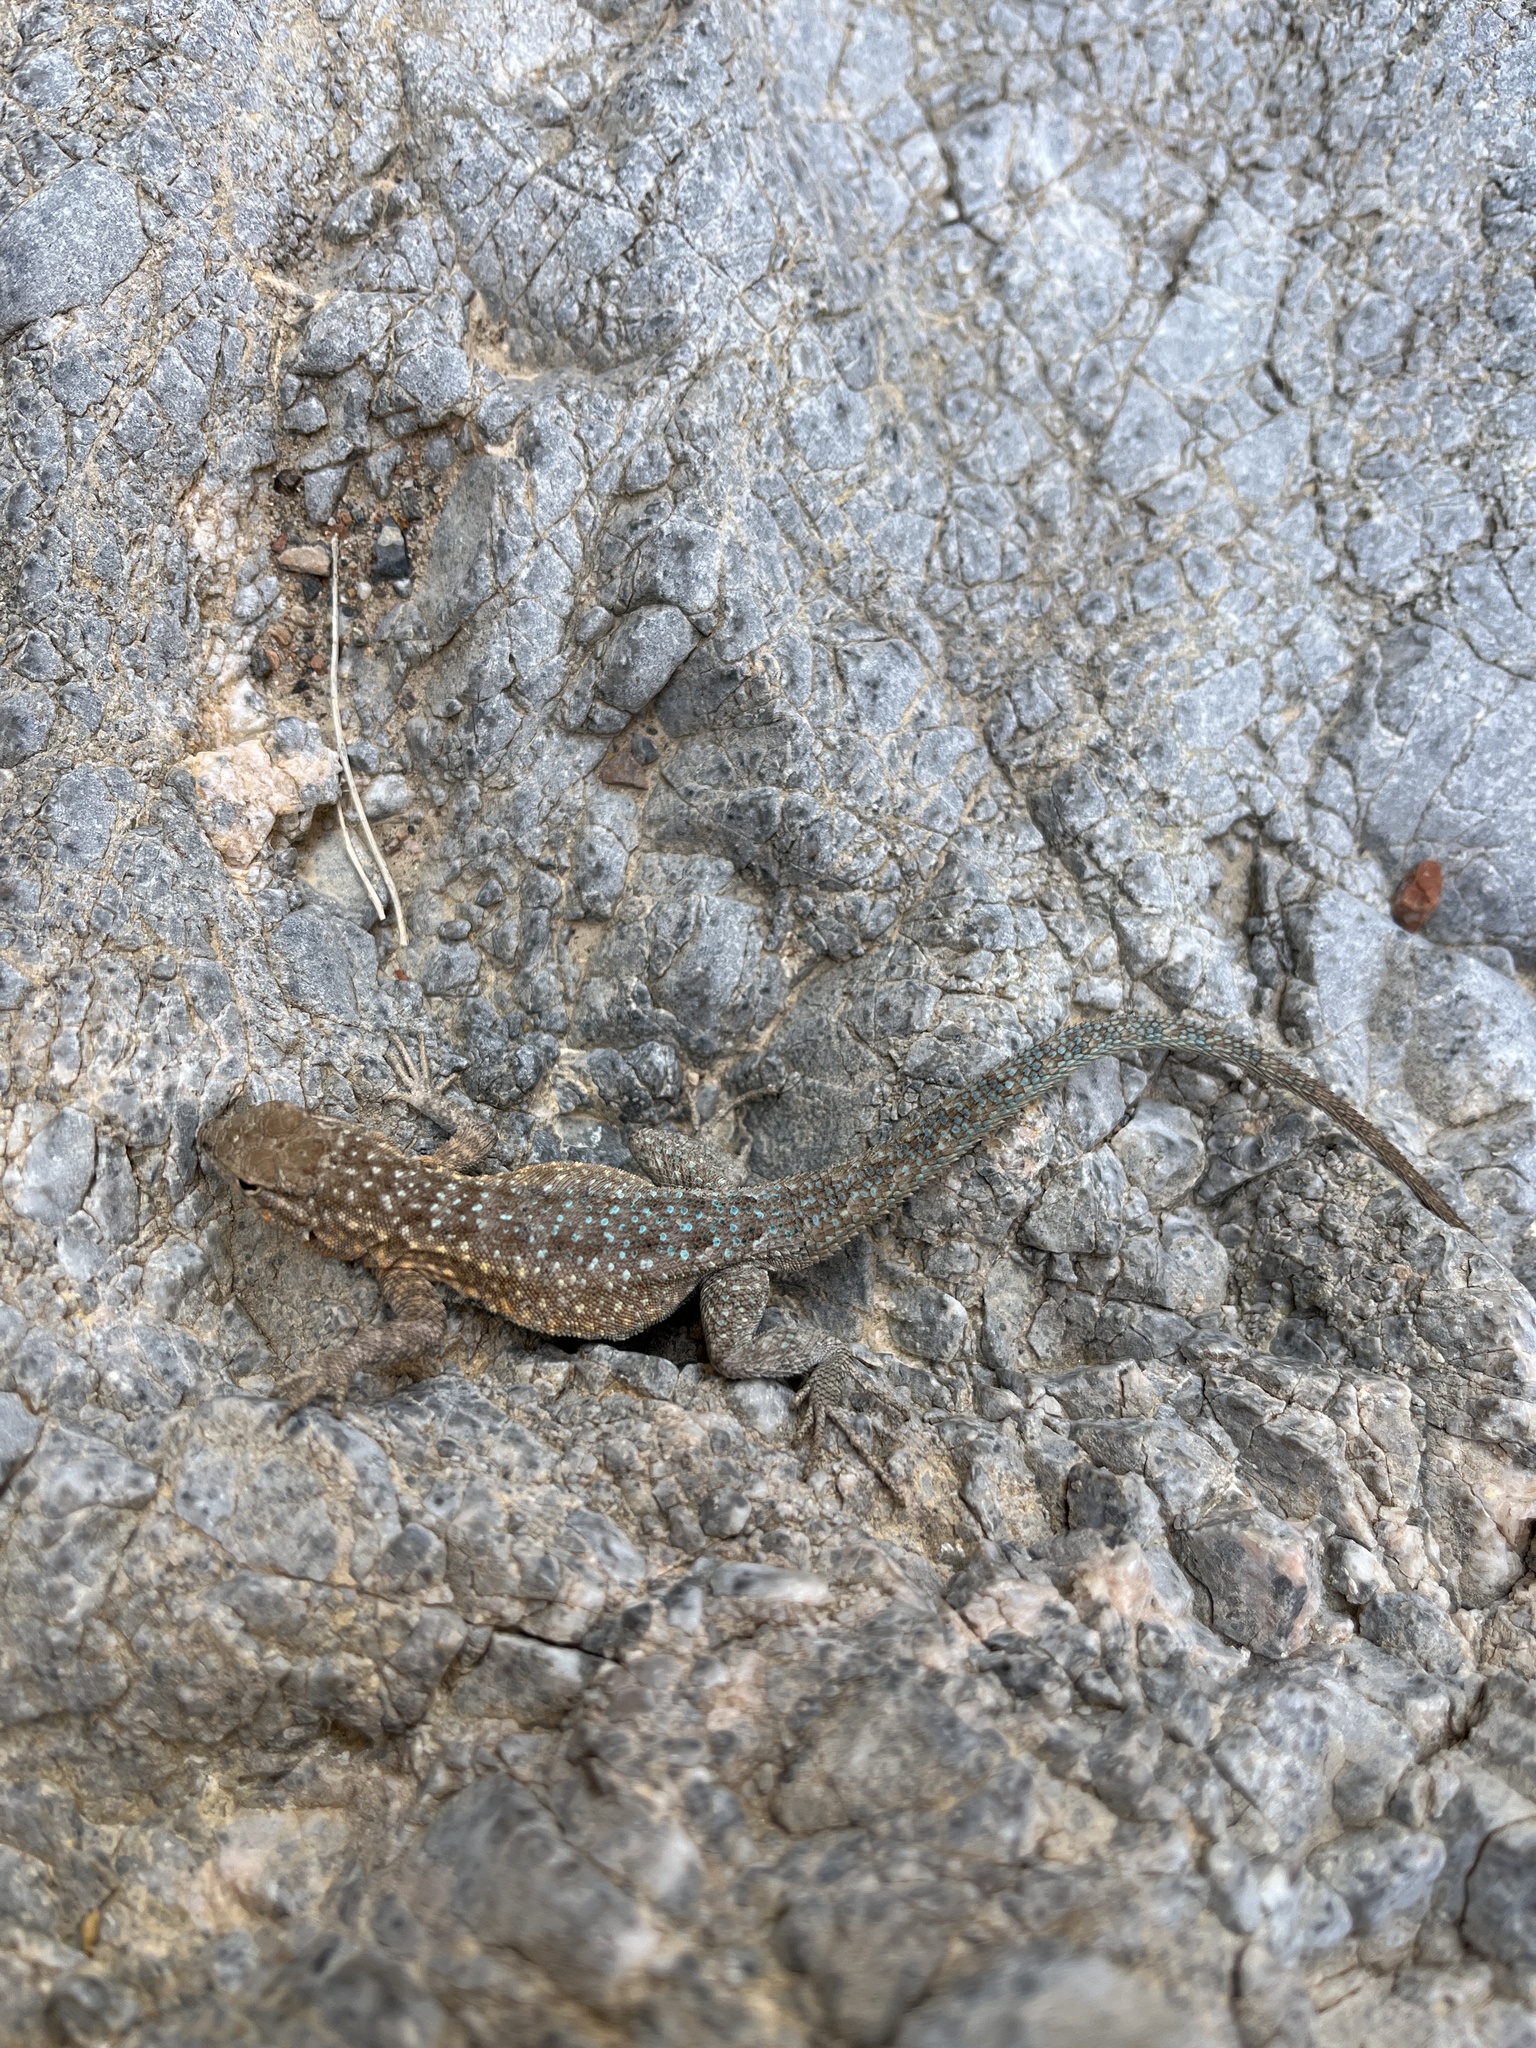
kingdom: Animalia
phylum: Chordata
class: Squamata
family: Phrynosomatidae
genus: Uta
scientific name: Uta stansburiana
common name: Side-blotched lizard
